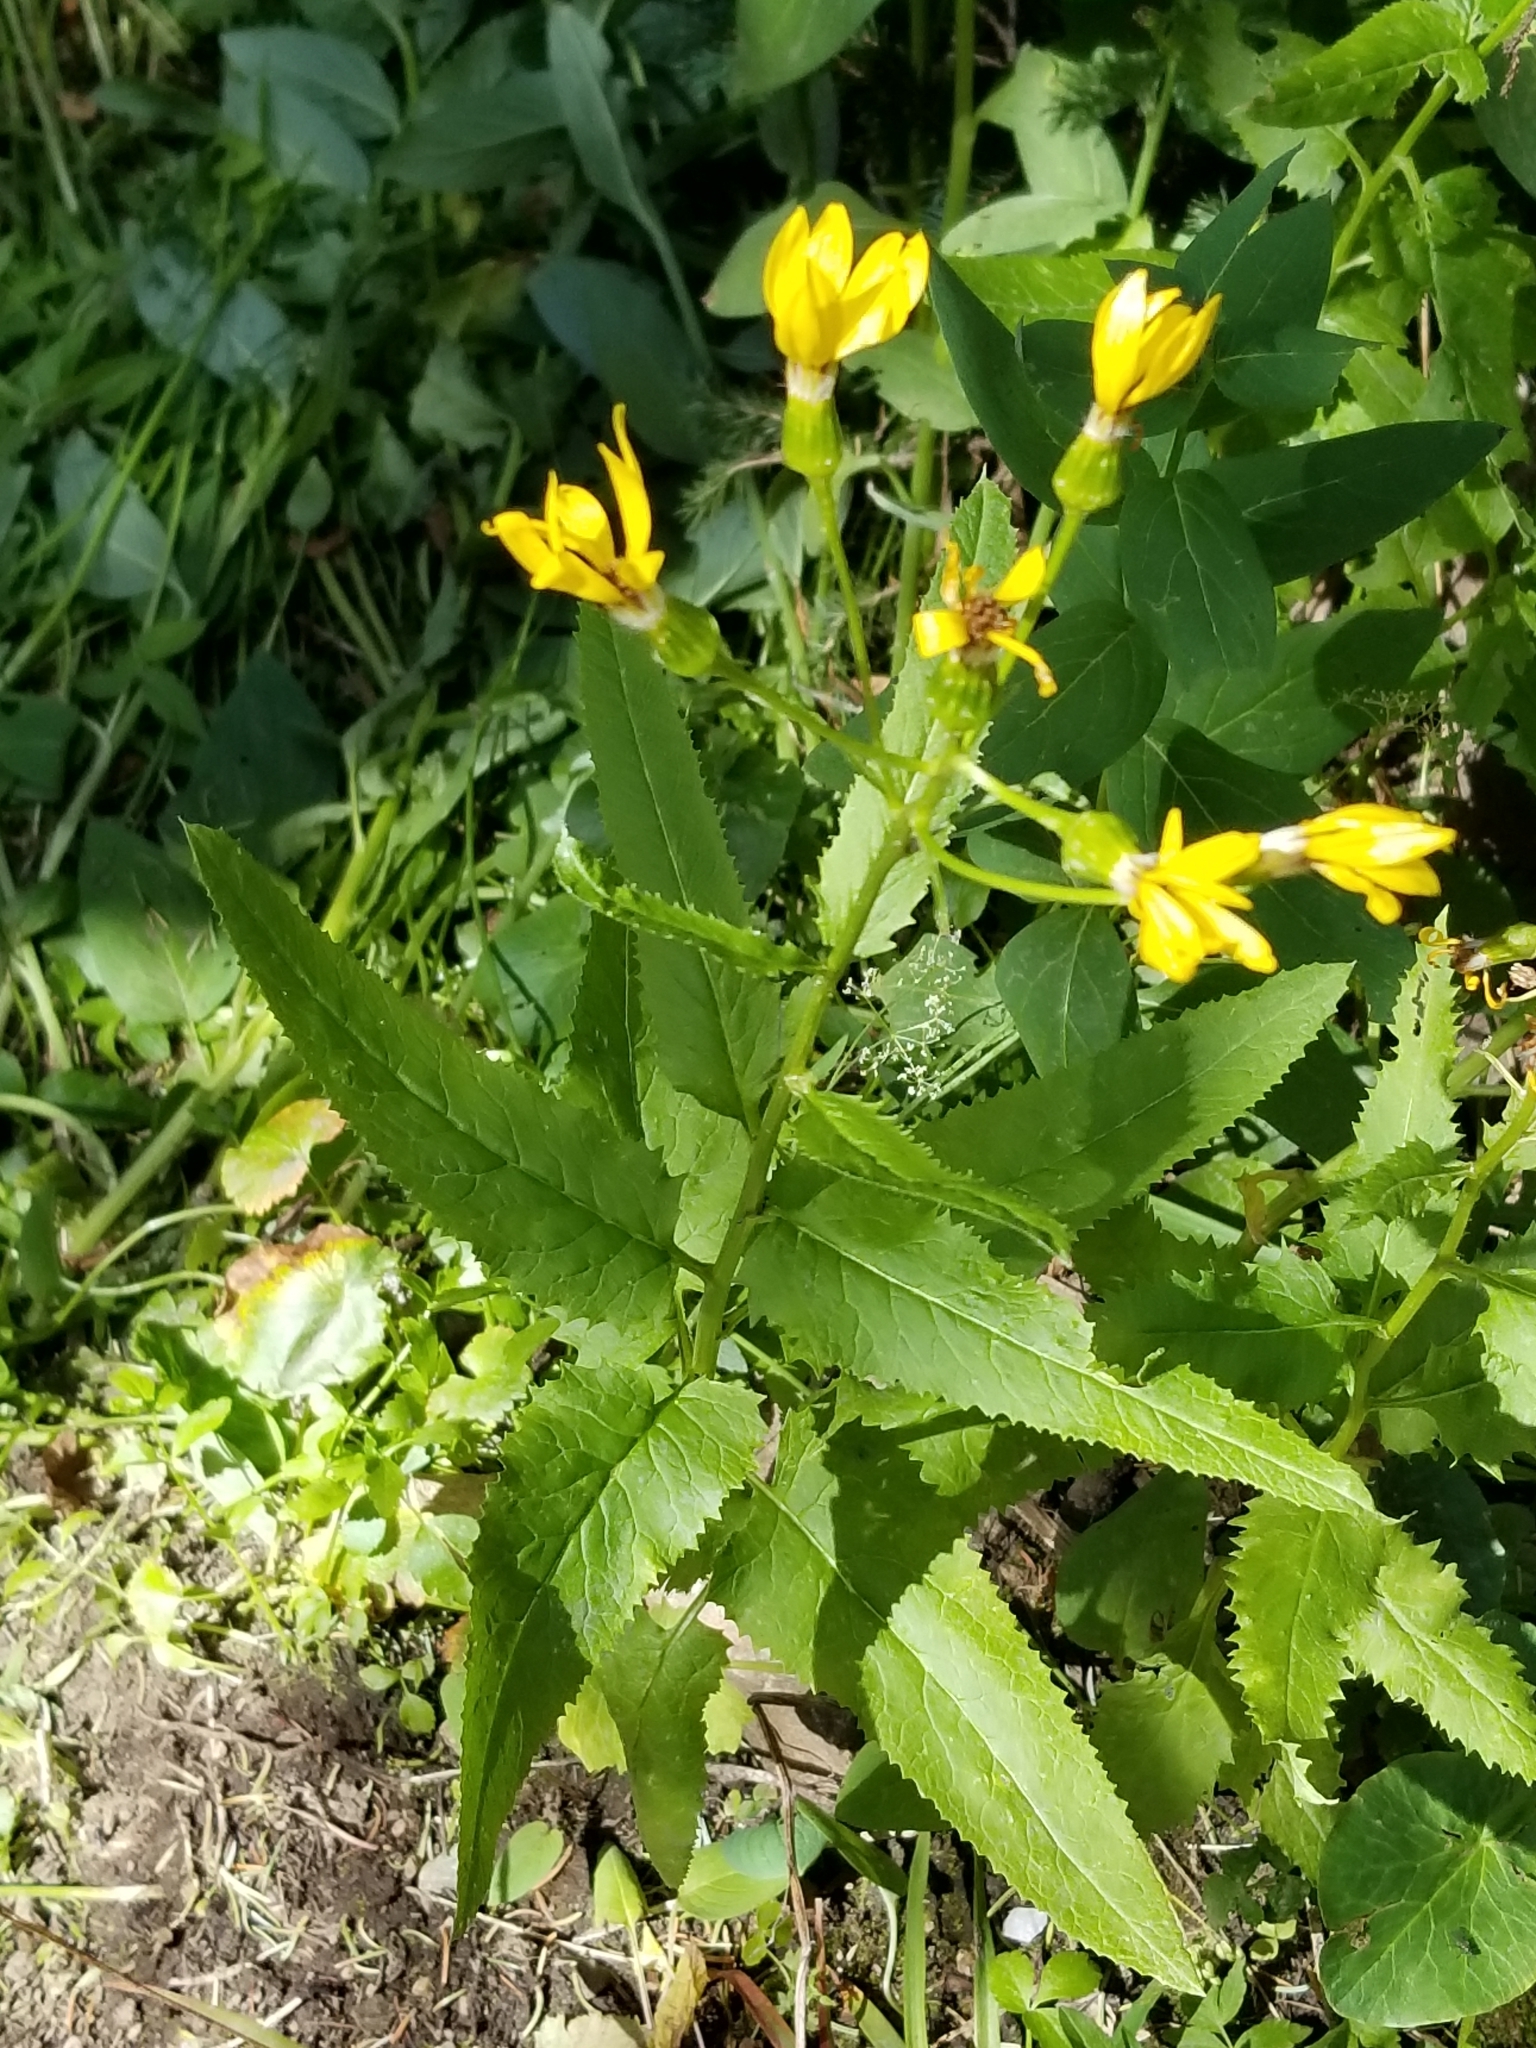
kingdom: Plantae
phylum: Tracheophyta
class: Magnoliopsida
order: Asterales
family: Asteraceae
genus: Senecio
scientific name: Senecio triangularis
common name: Arrowleaf butterweed
